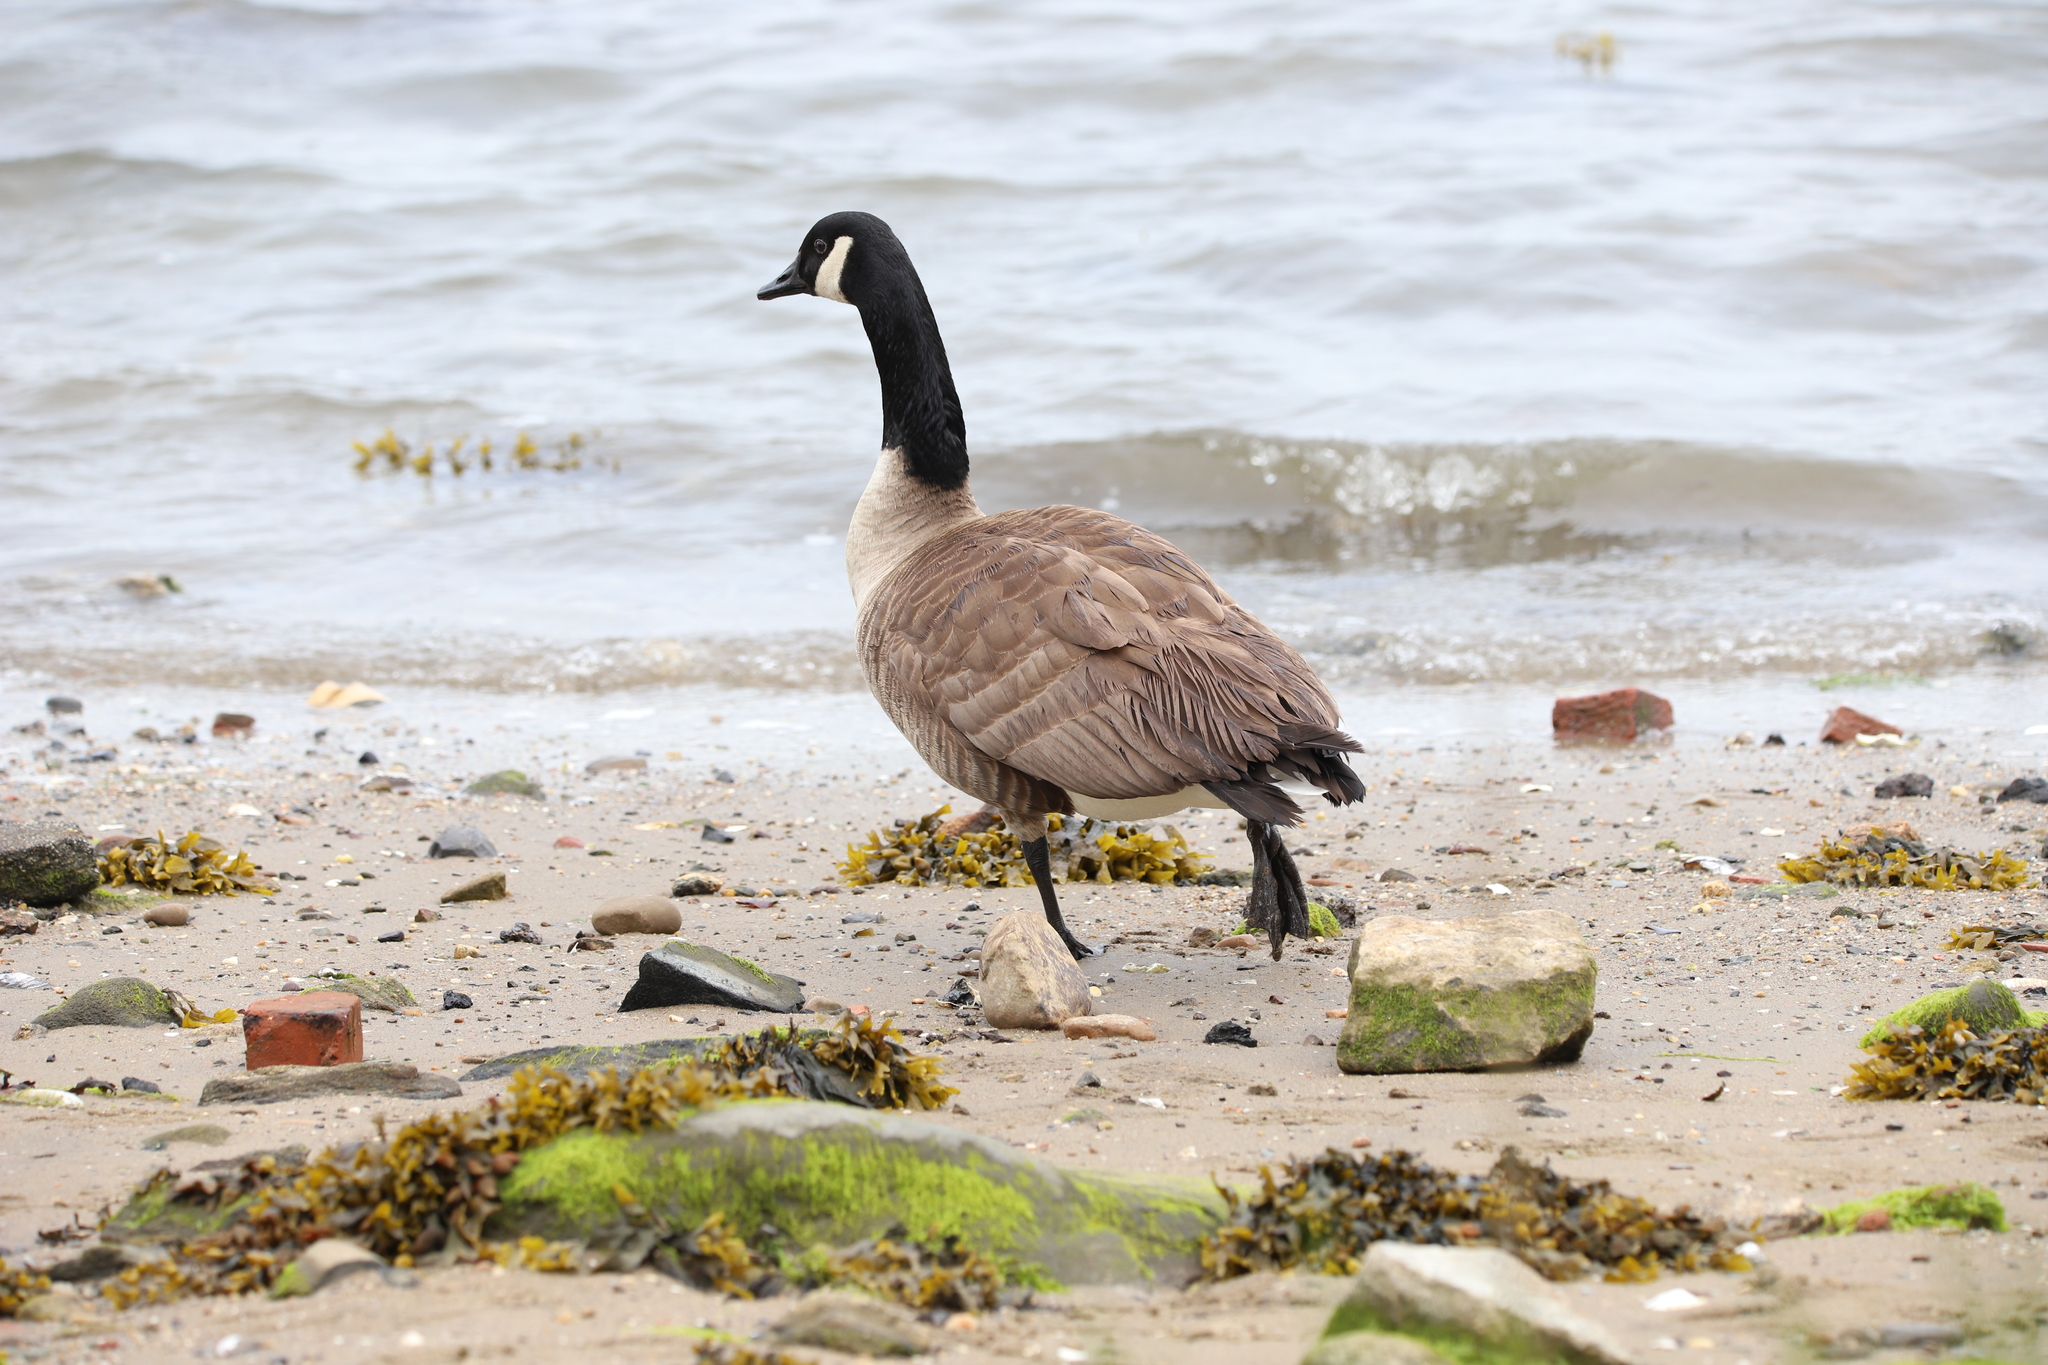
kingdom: Animalia
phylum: Chordata
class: Aves
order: Anseriformes
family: Anatidae
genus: Branta
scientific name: Branta canadensis
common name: Canada goose
